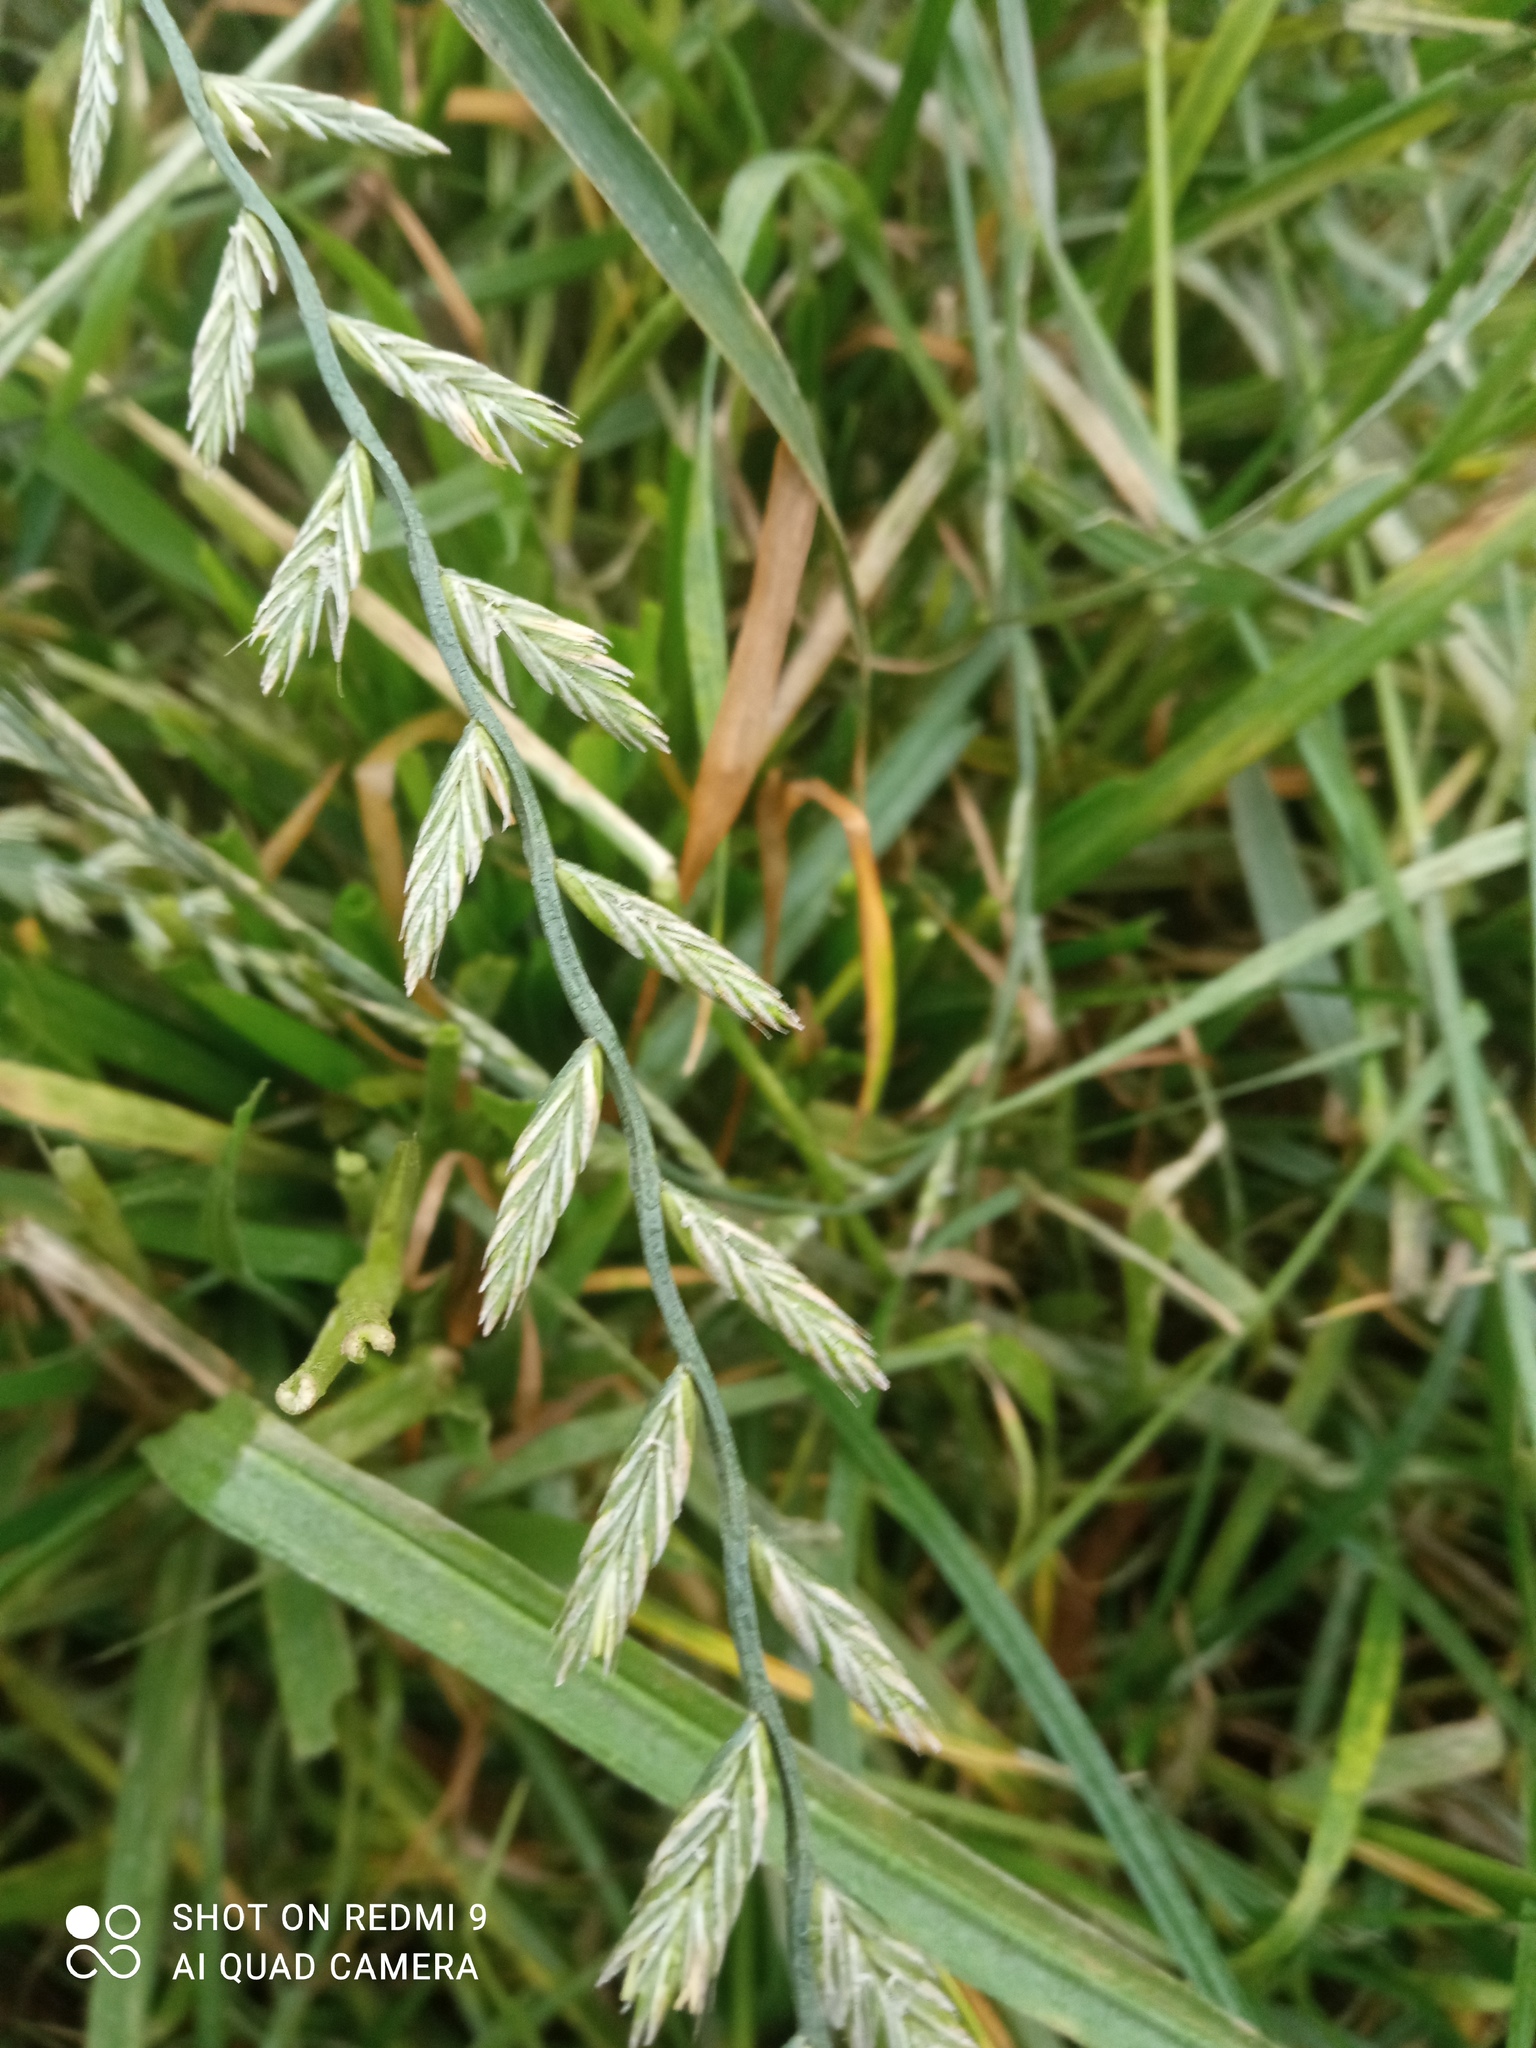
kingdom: Plantae
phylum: Tracheophyta
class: Liliopsida
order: Poales
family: Poaceae
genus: Lolium
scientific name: Lolium perenne
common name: Perennial ryegrass
